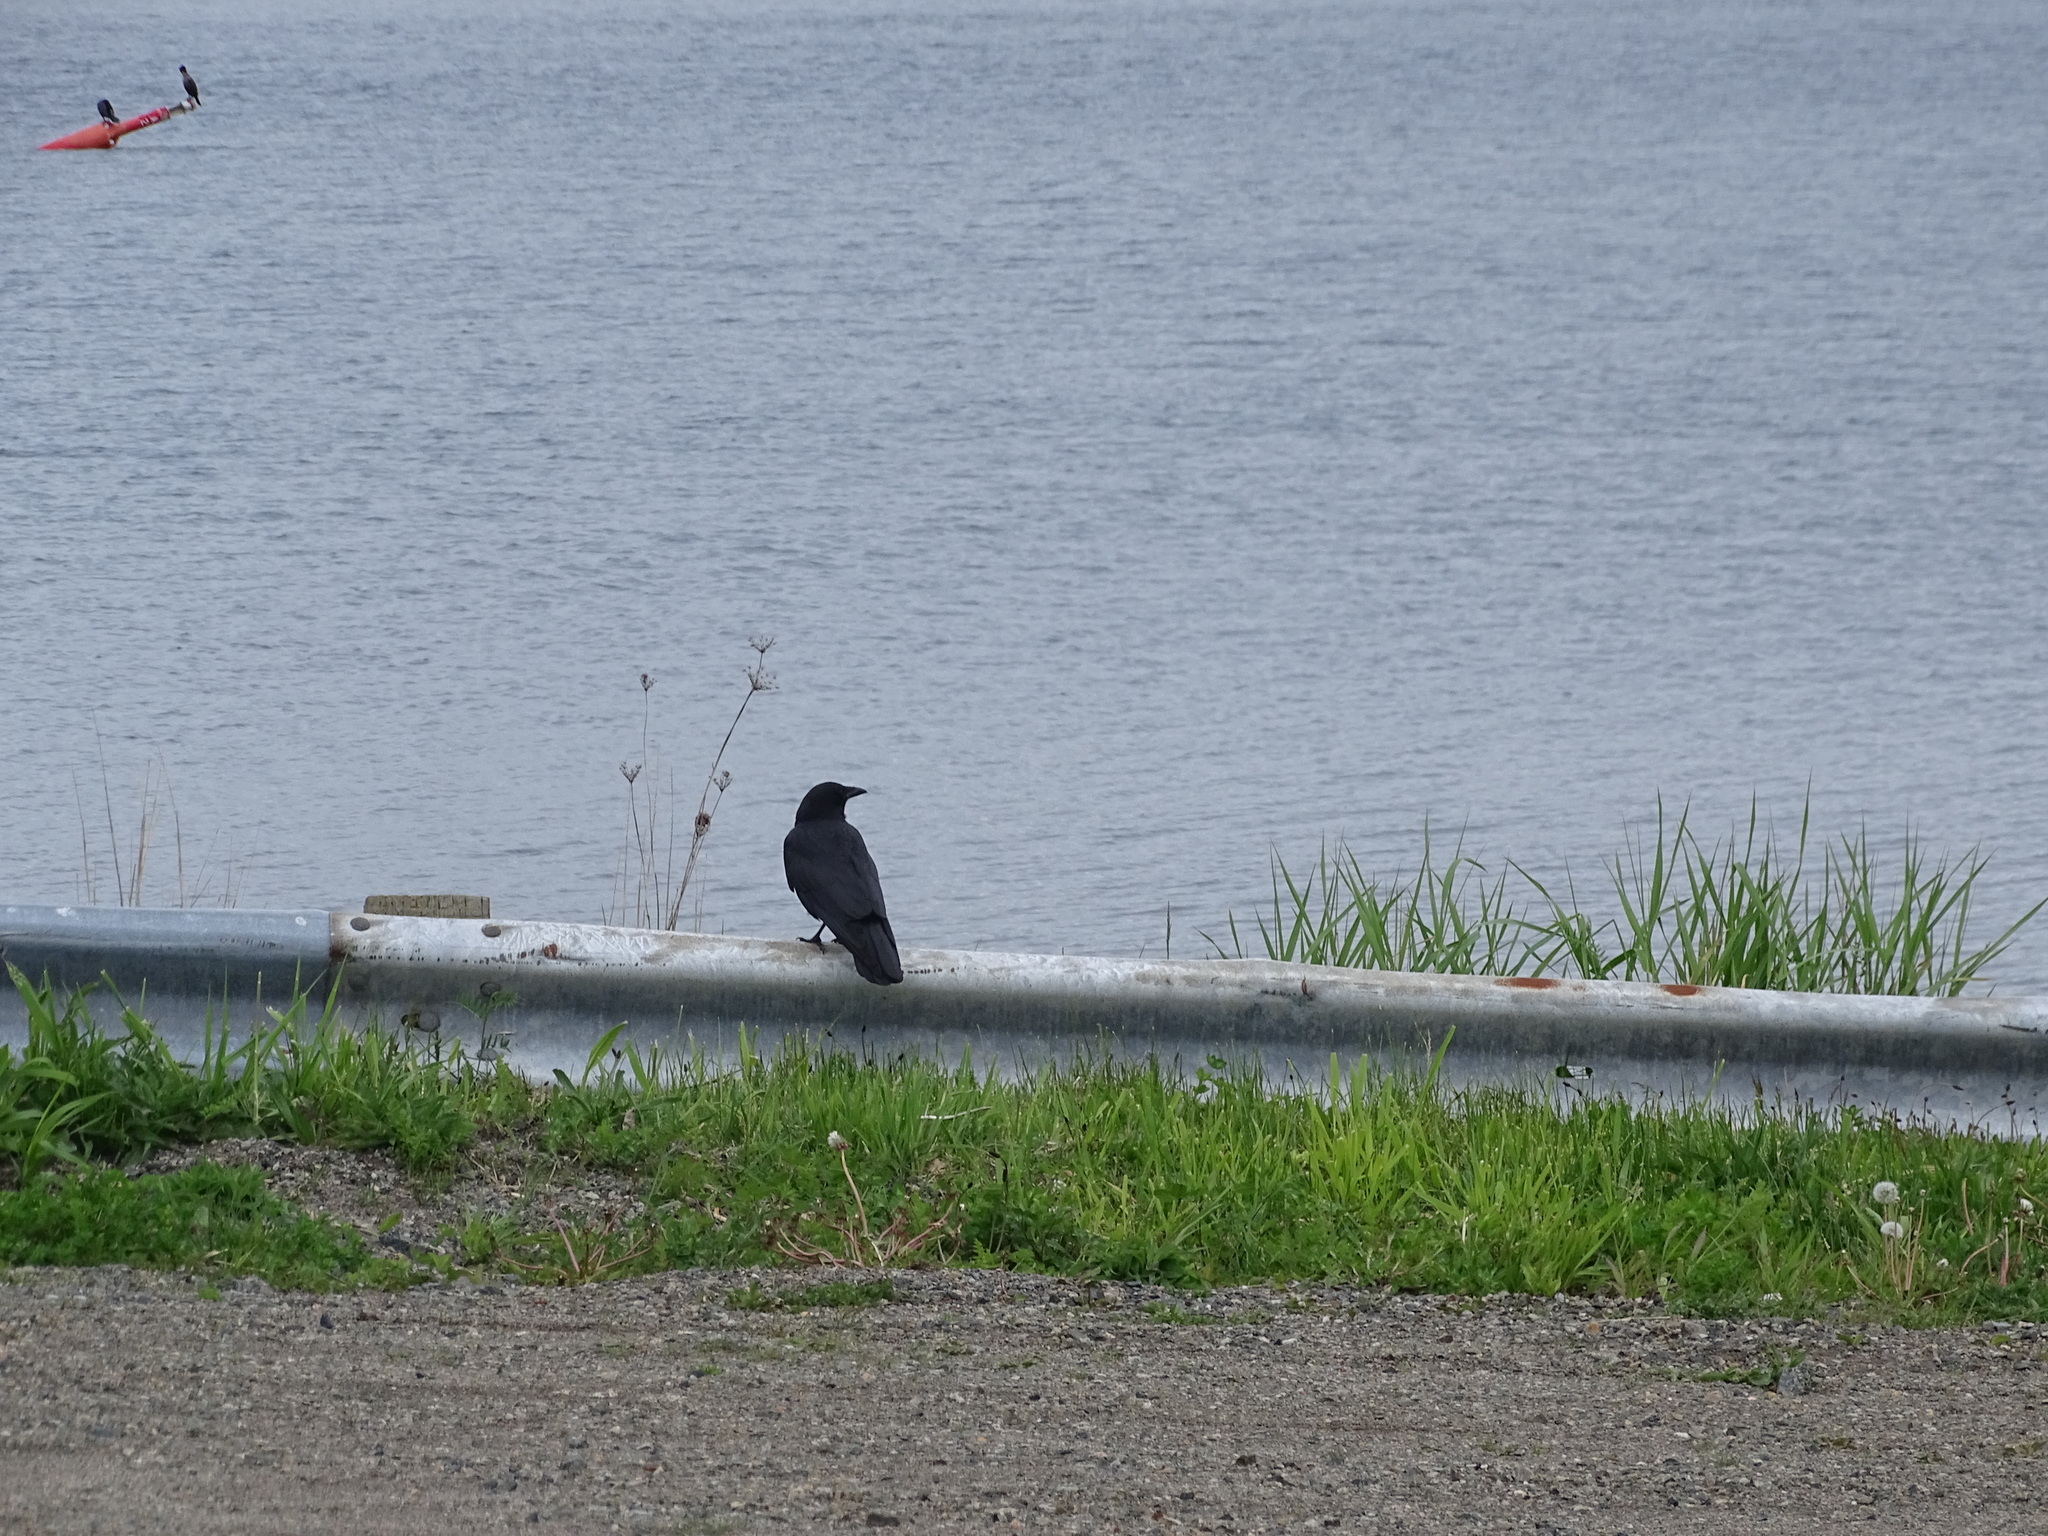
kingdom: Animalia
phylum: Chordata
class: Aves
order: Passeriformes
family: Corvidae
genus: Corvus
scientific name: Corvus brachyrhynchos
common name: American crow
